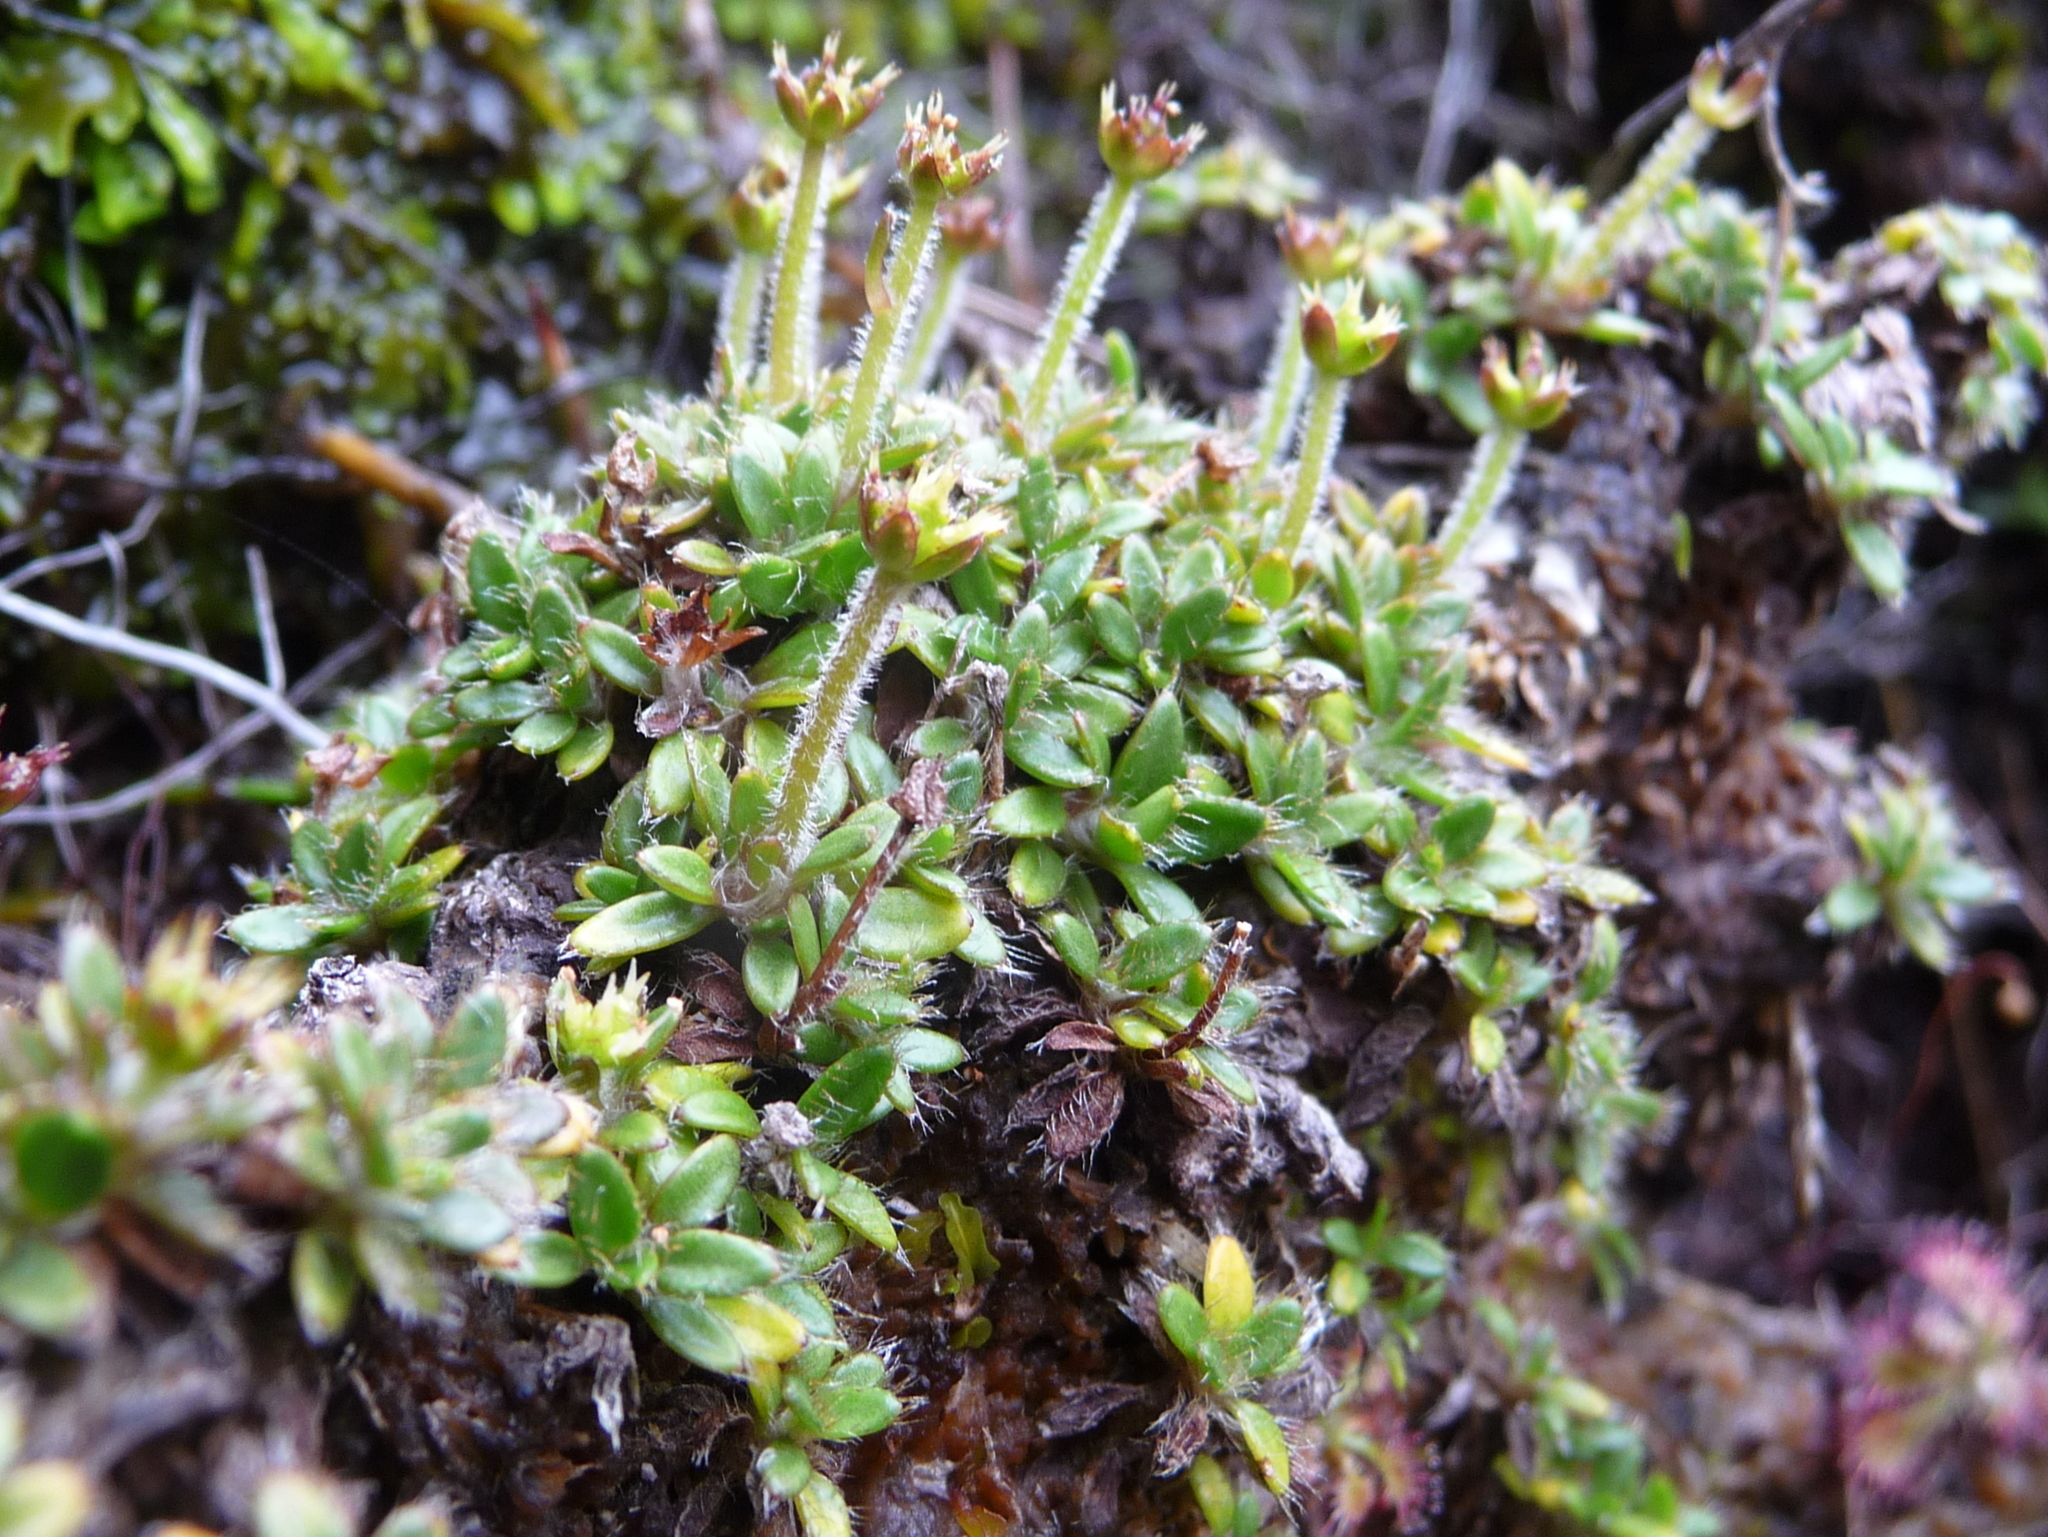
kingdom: Plantae
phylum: Tracheophyta
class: Magnoliopsida
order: Apiales
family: Apiaceae
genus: Actinotus
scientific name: Actinotus novae-zealandiae
